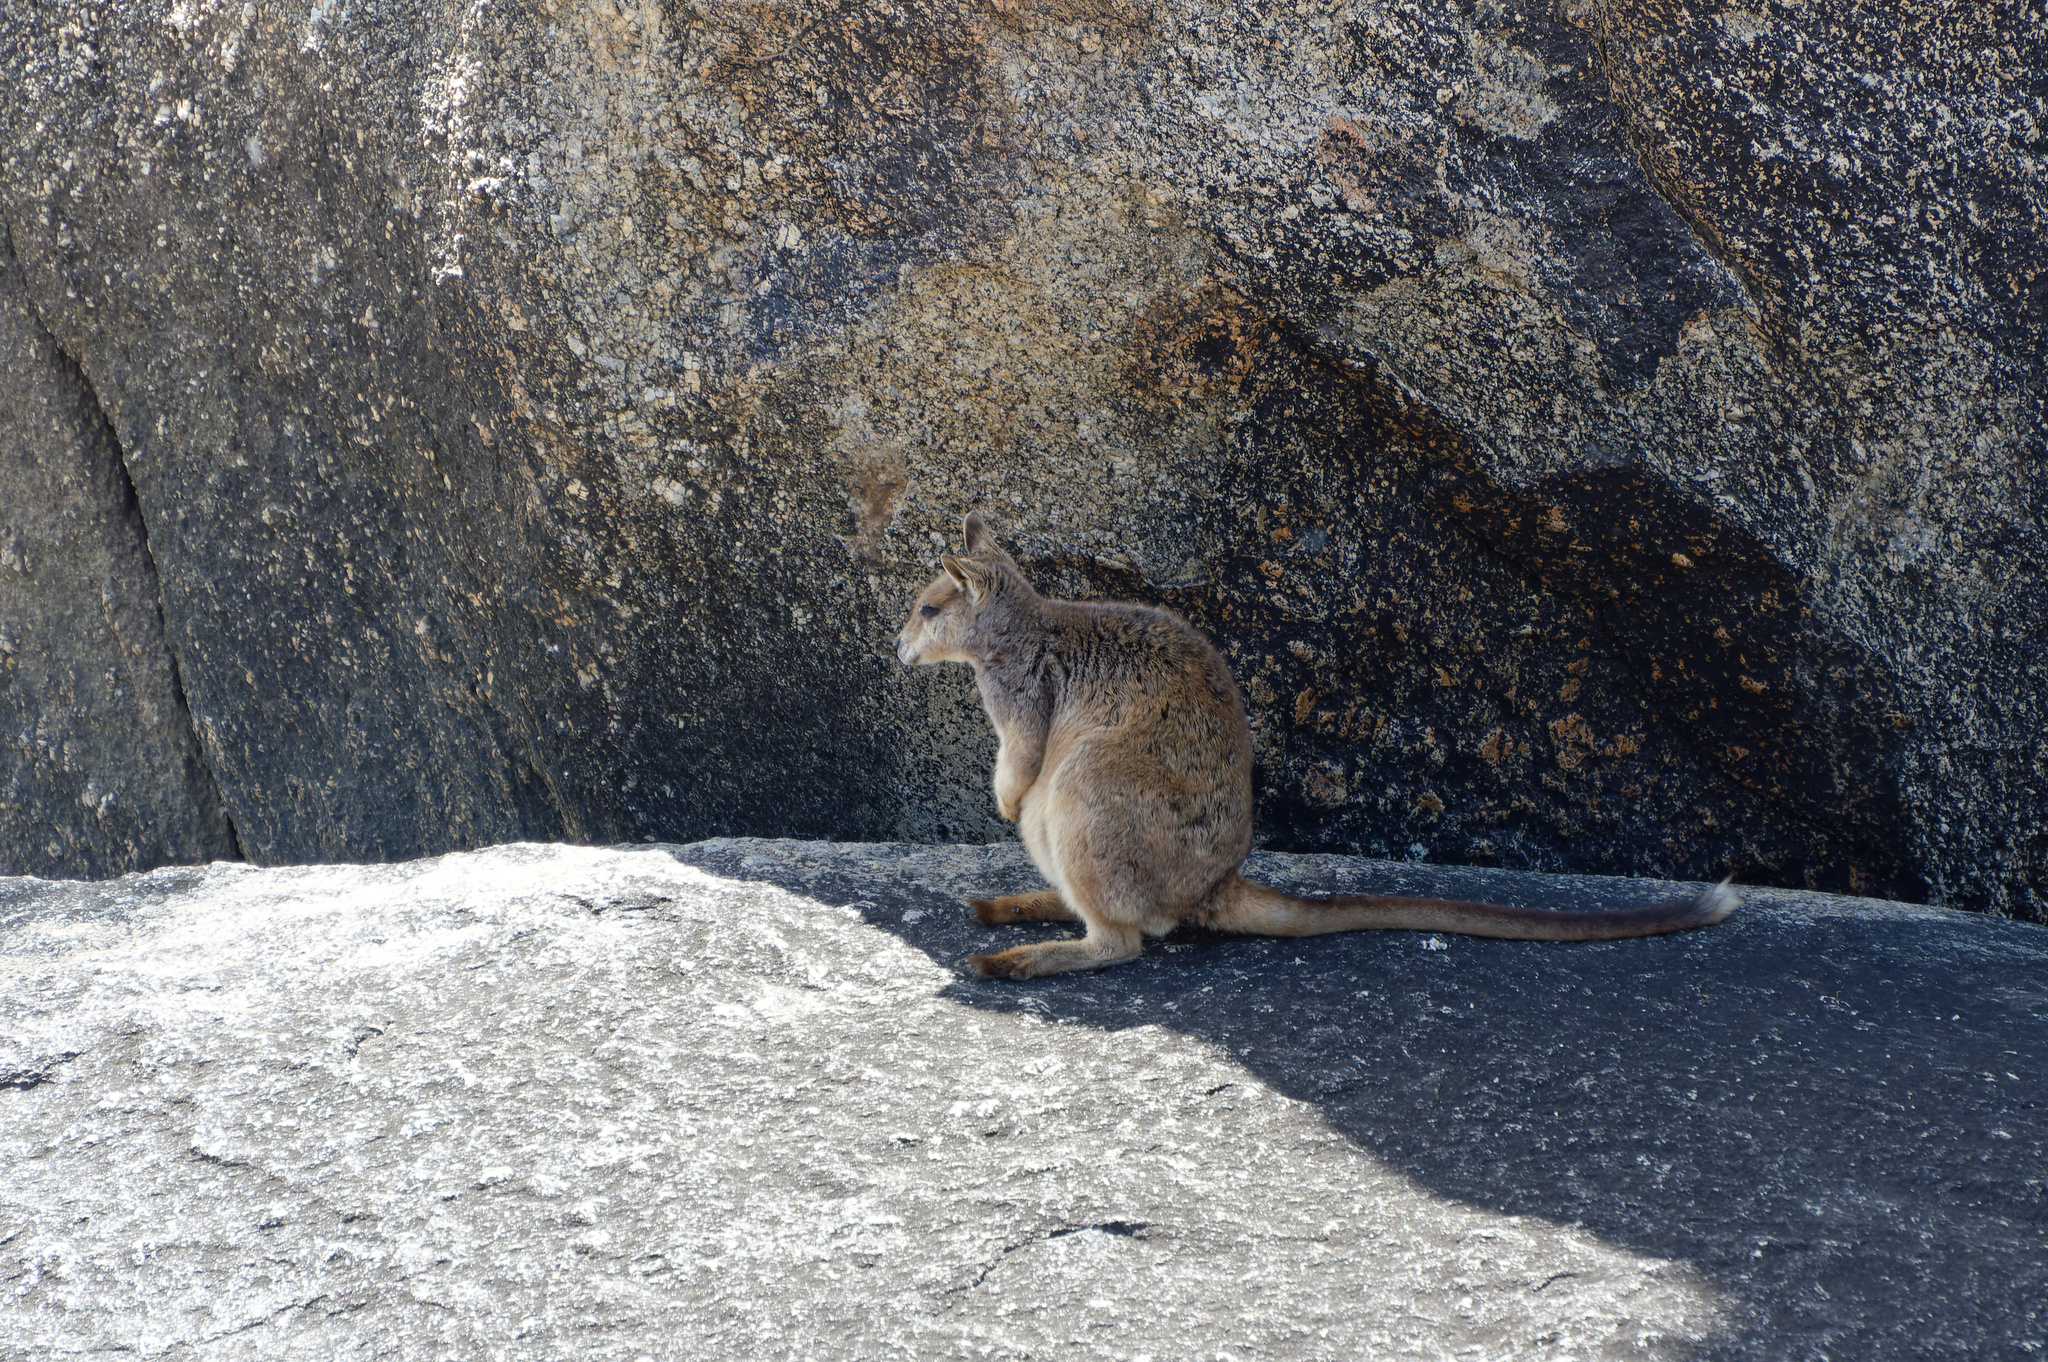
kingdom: Animalia
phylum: Chordata
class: Mammalia
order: Diprotodontia
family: Macropodidae
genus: Petrogale
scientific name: Petrogale mareeba
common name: Mareeba rock-wallaby
